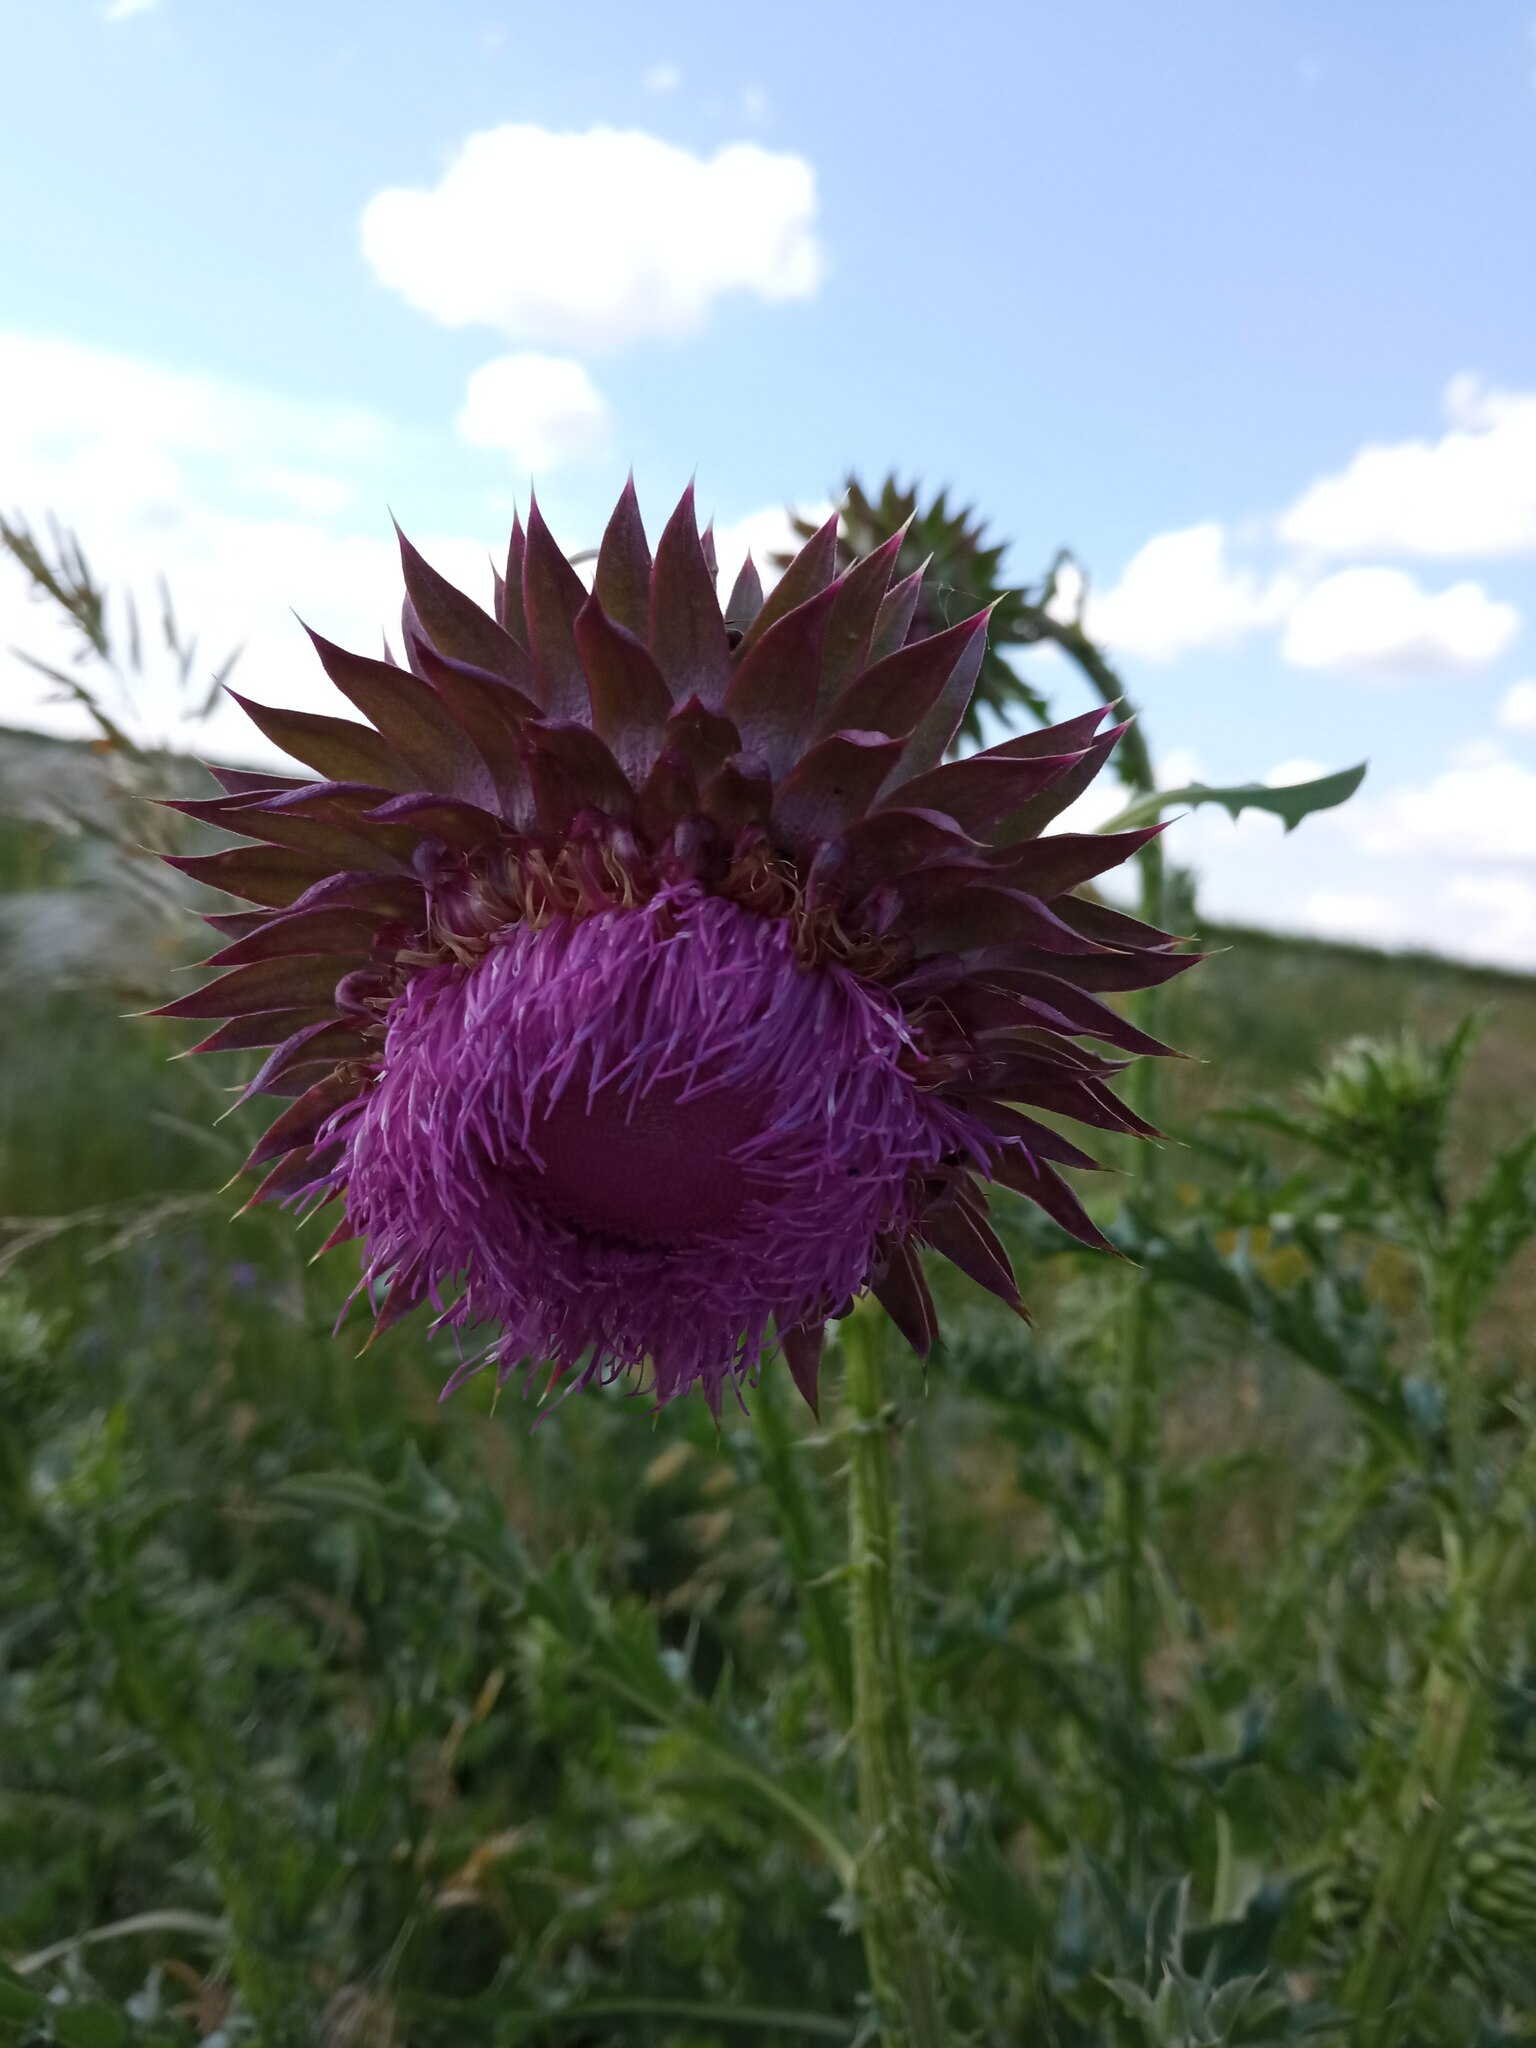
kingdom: Plantae
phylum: Tracheophyta
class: Magnoliopsida
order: Asterales
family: Asteraceae
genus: Carduus
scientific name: Carduus nutans
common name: Musk thistle
